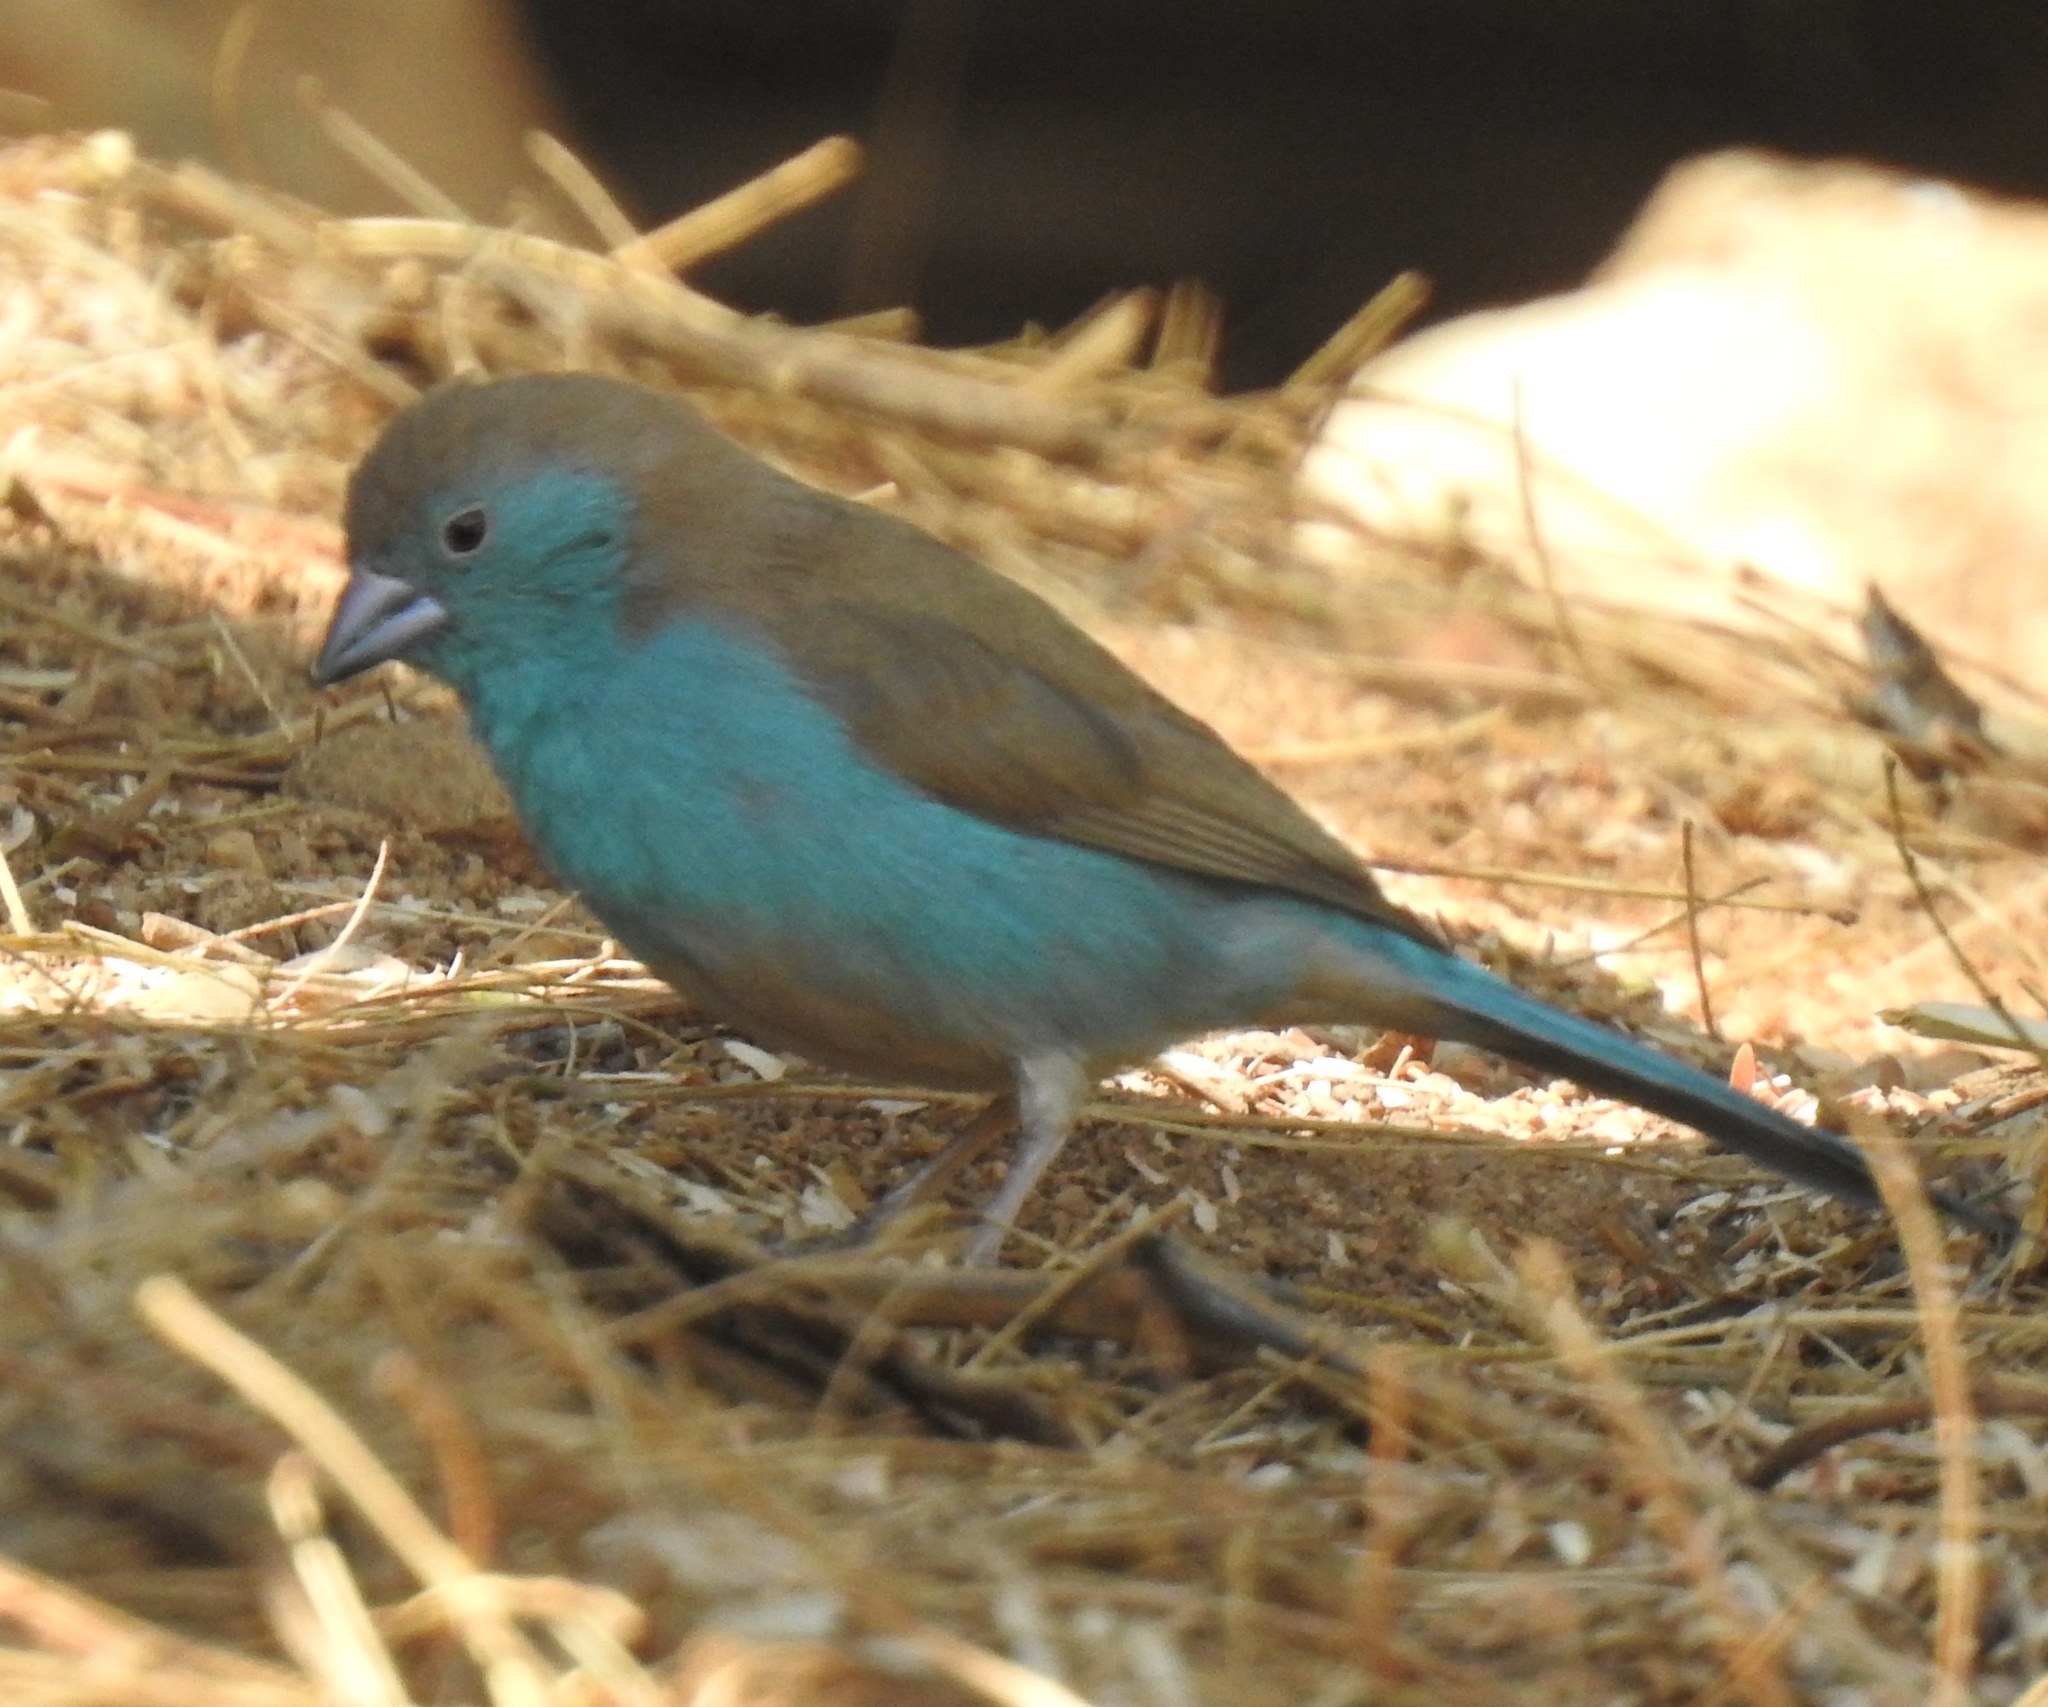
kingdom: Animalia
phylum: Chordata
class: Aves
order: Passeriformes
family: Estrildidae
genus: Uraeginthus
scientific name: Uraeginthus angolensis
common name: Blue waxbill
